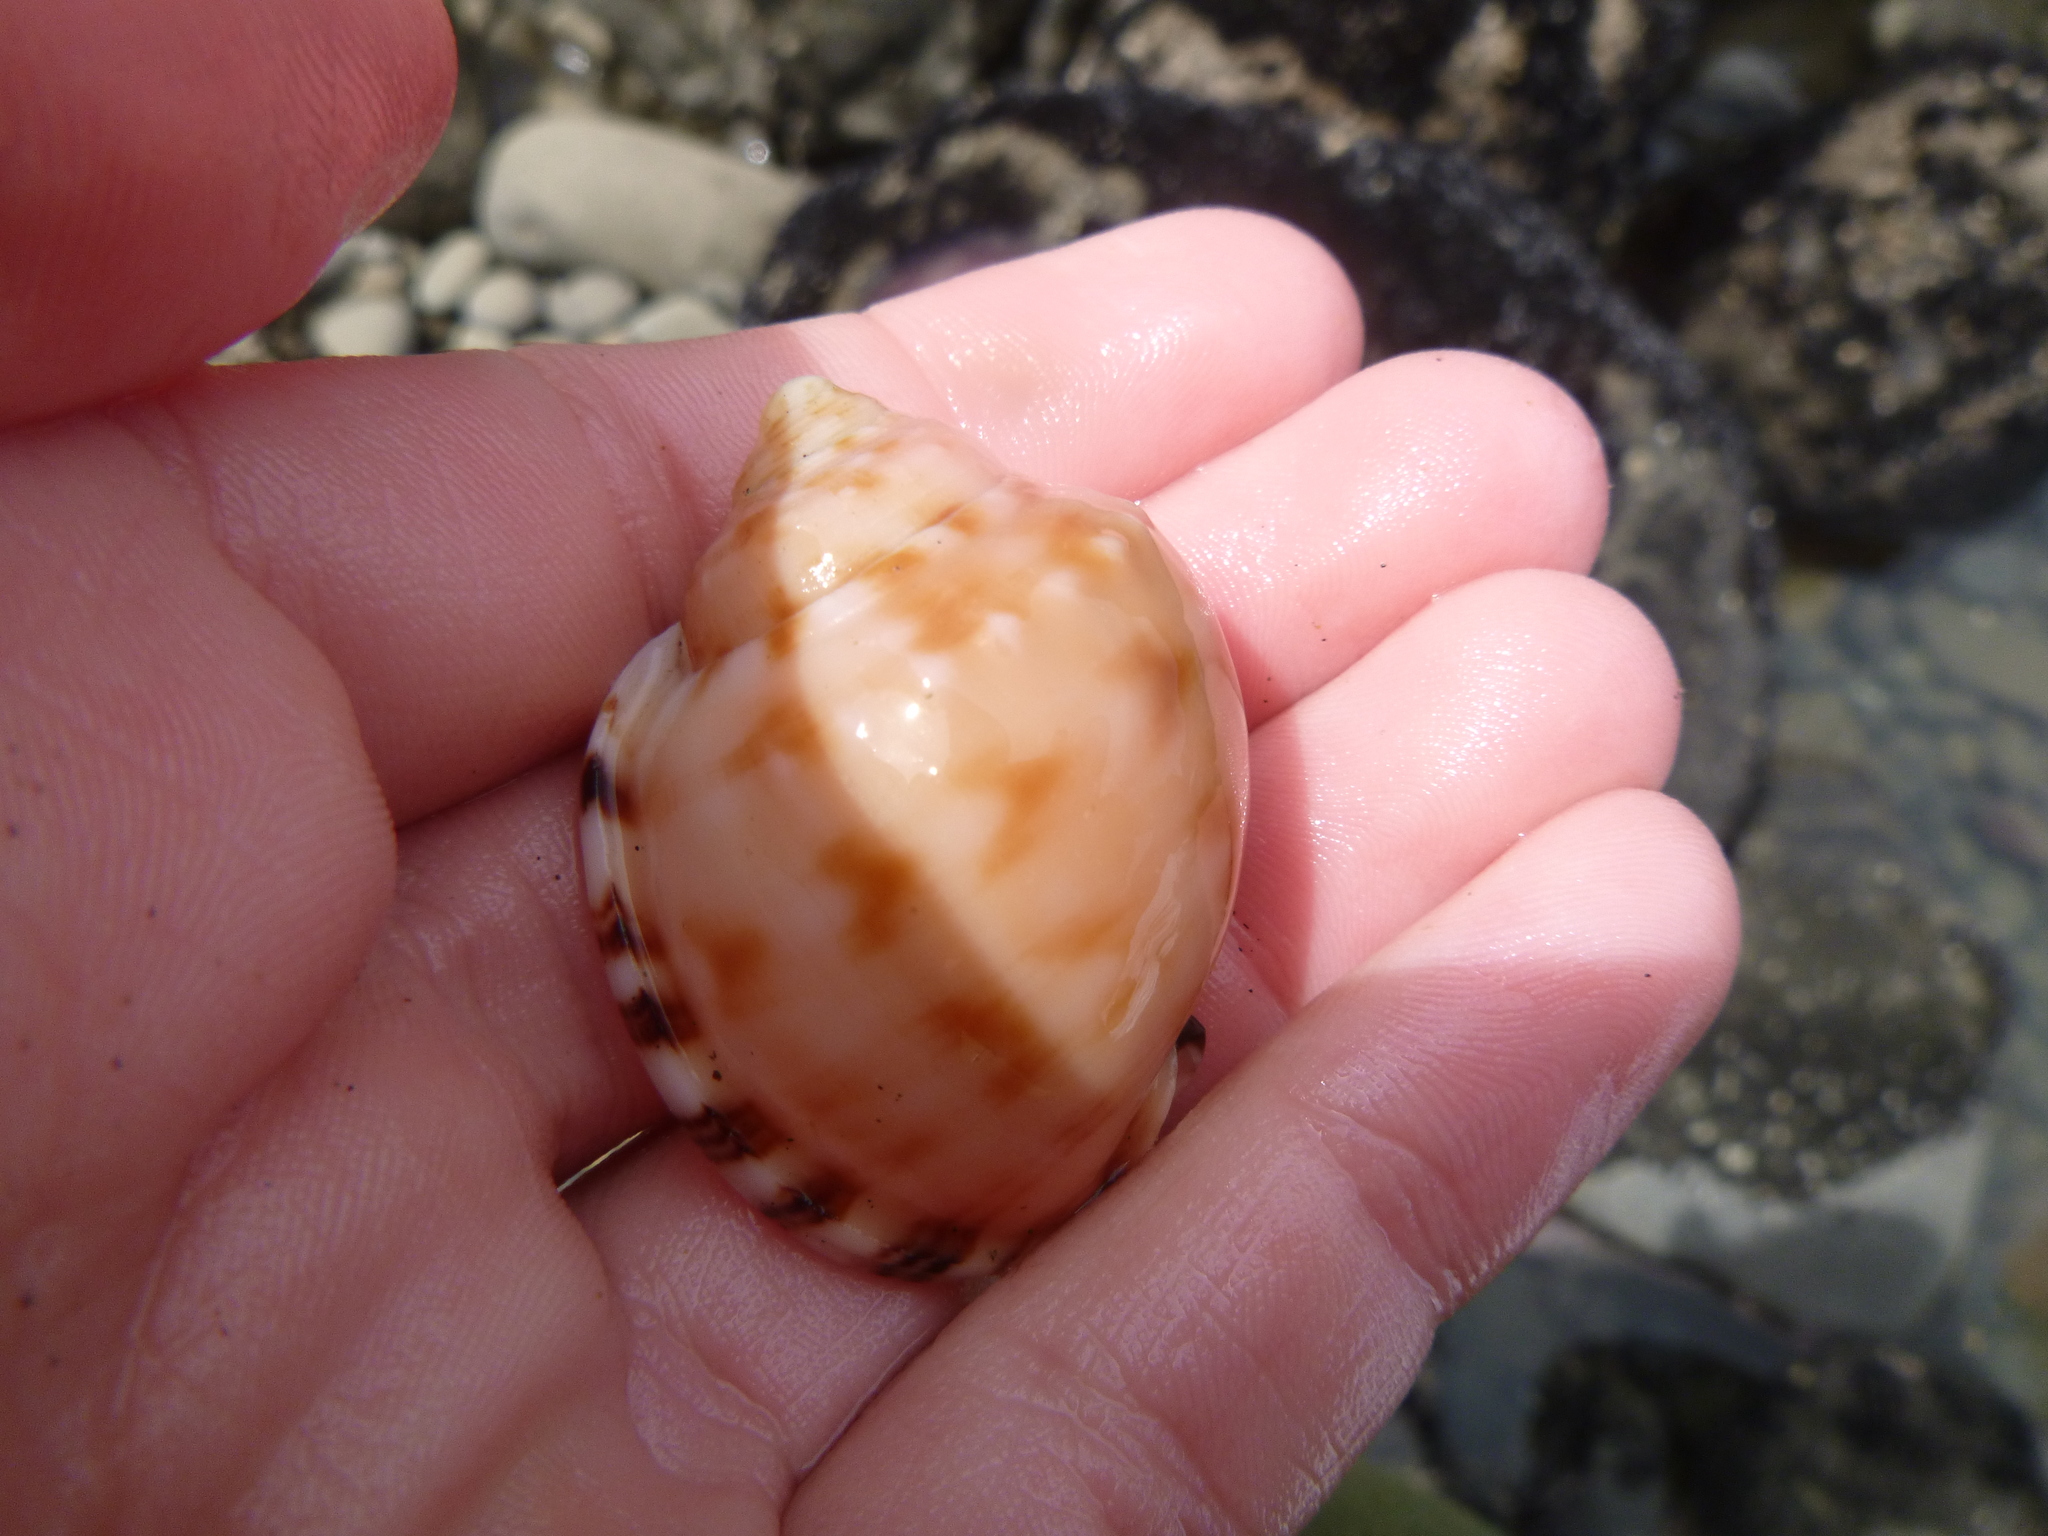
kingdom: Animalia
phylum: Mollusca
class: Gastropoda
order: Littorinimorpha
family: Cassidae
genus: Semicassis
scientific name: Semicassis pyrum
